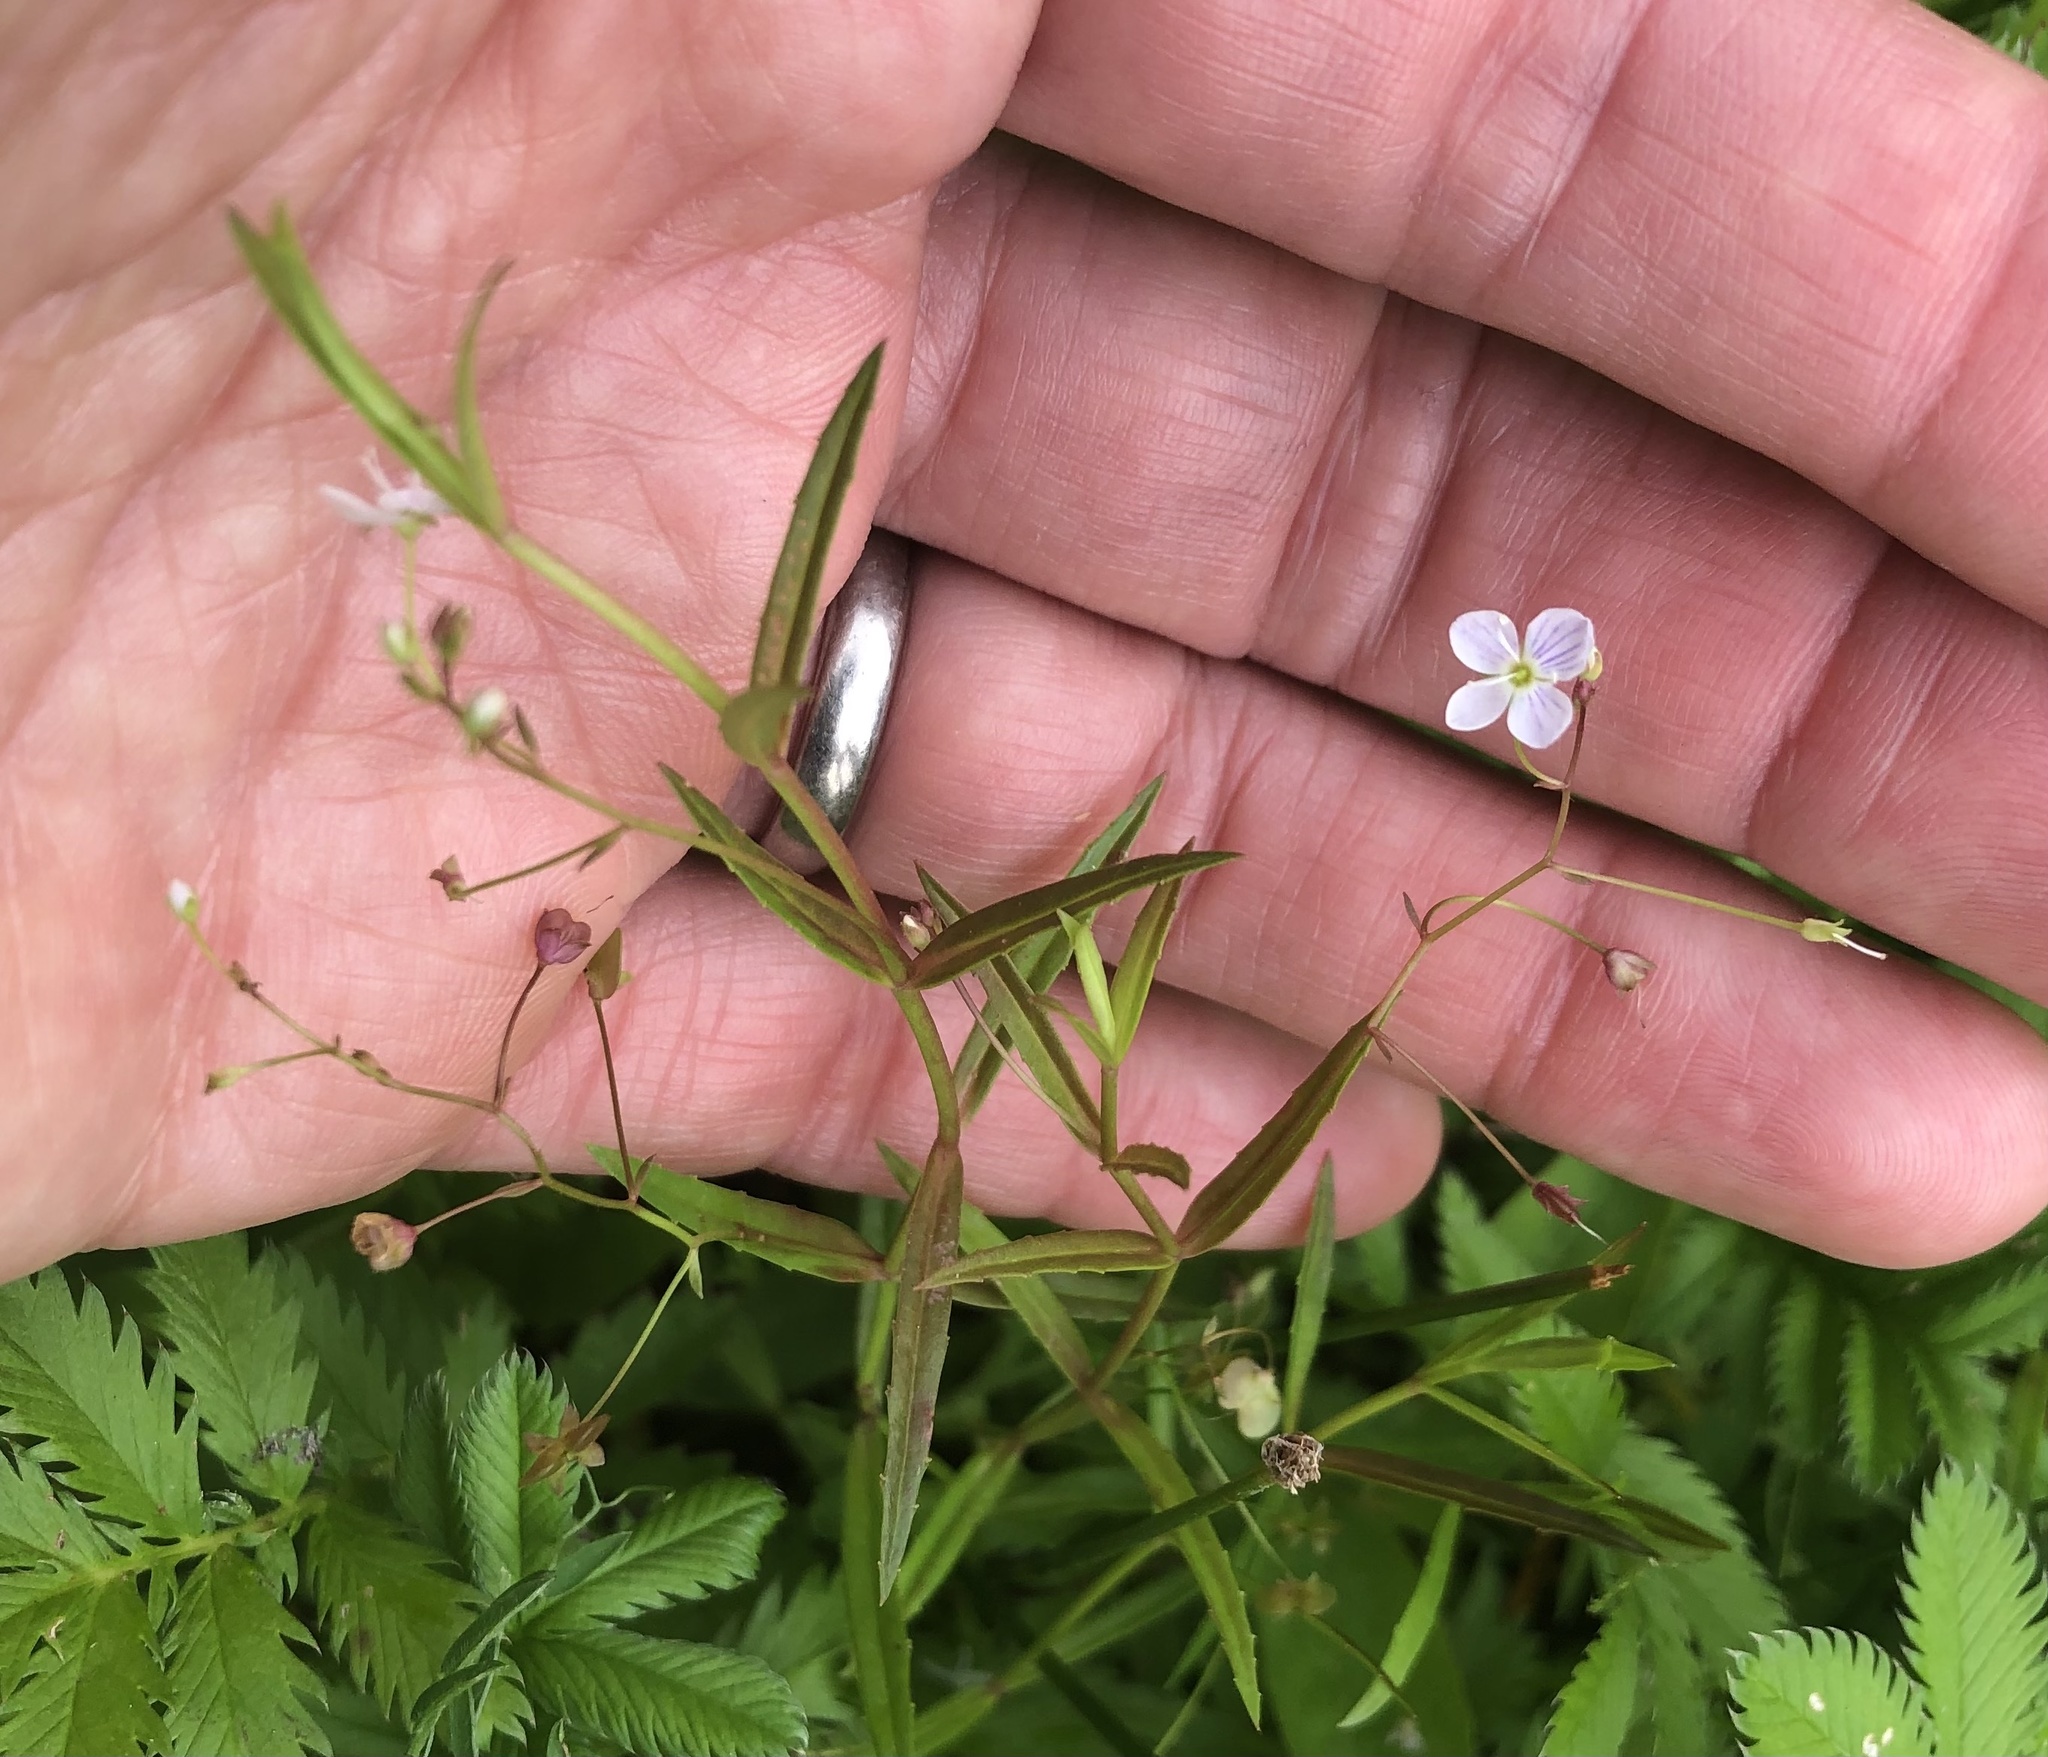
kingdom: Plantae
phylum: Tracheophyta
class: Magnoliopsida
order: Lamiales
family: Plantaginaceae
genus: Veronica
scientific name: Veronica scutellata
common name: Marsh speedwell
